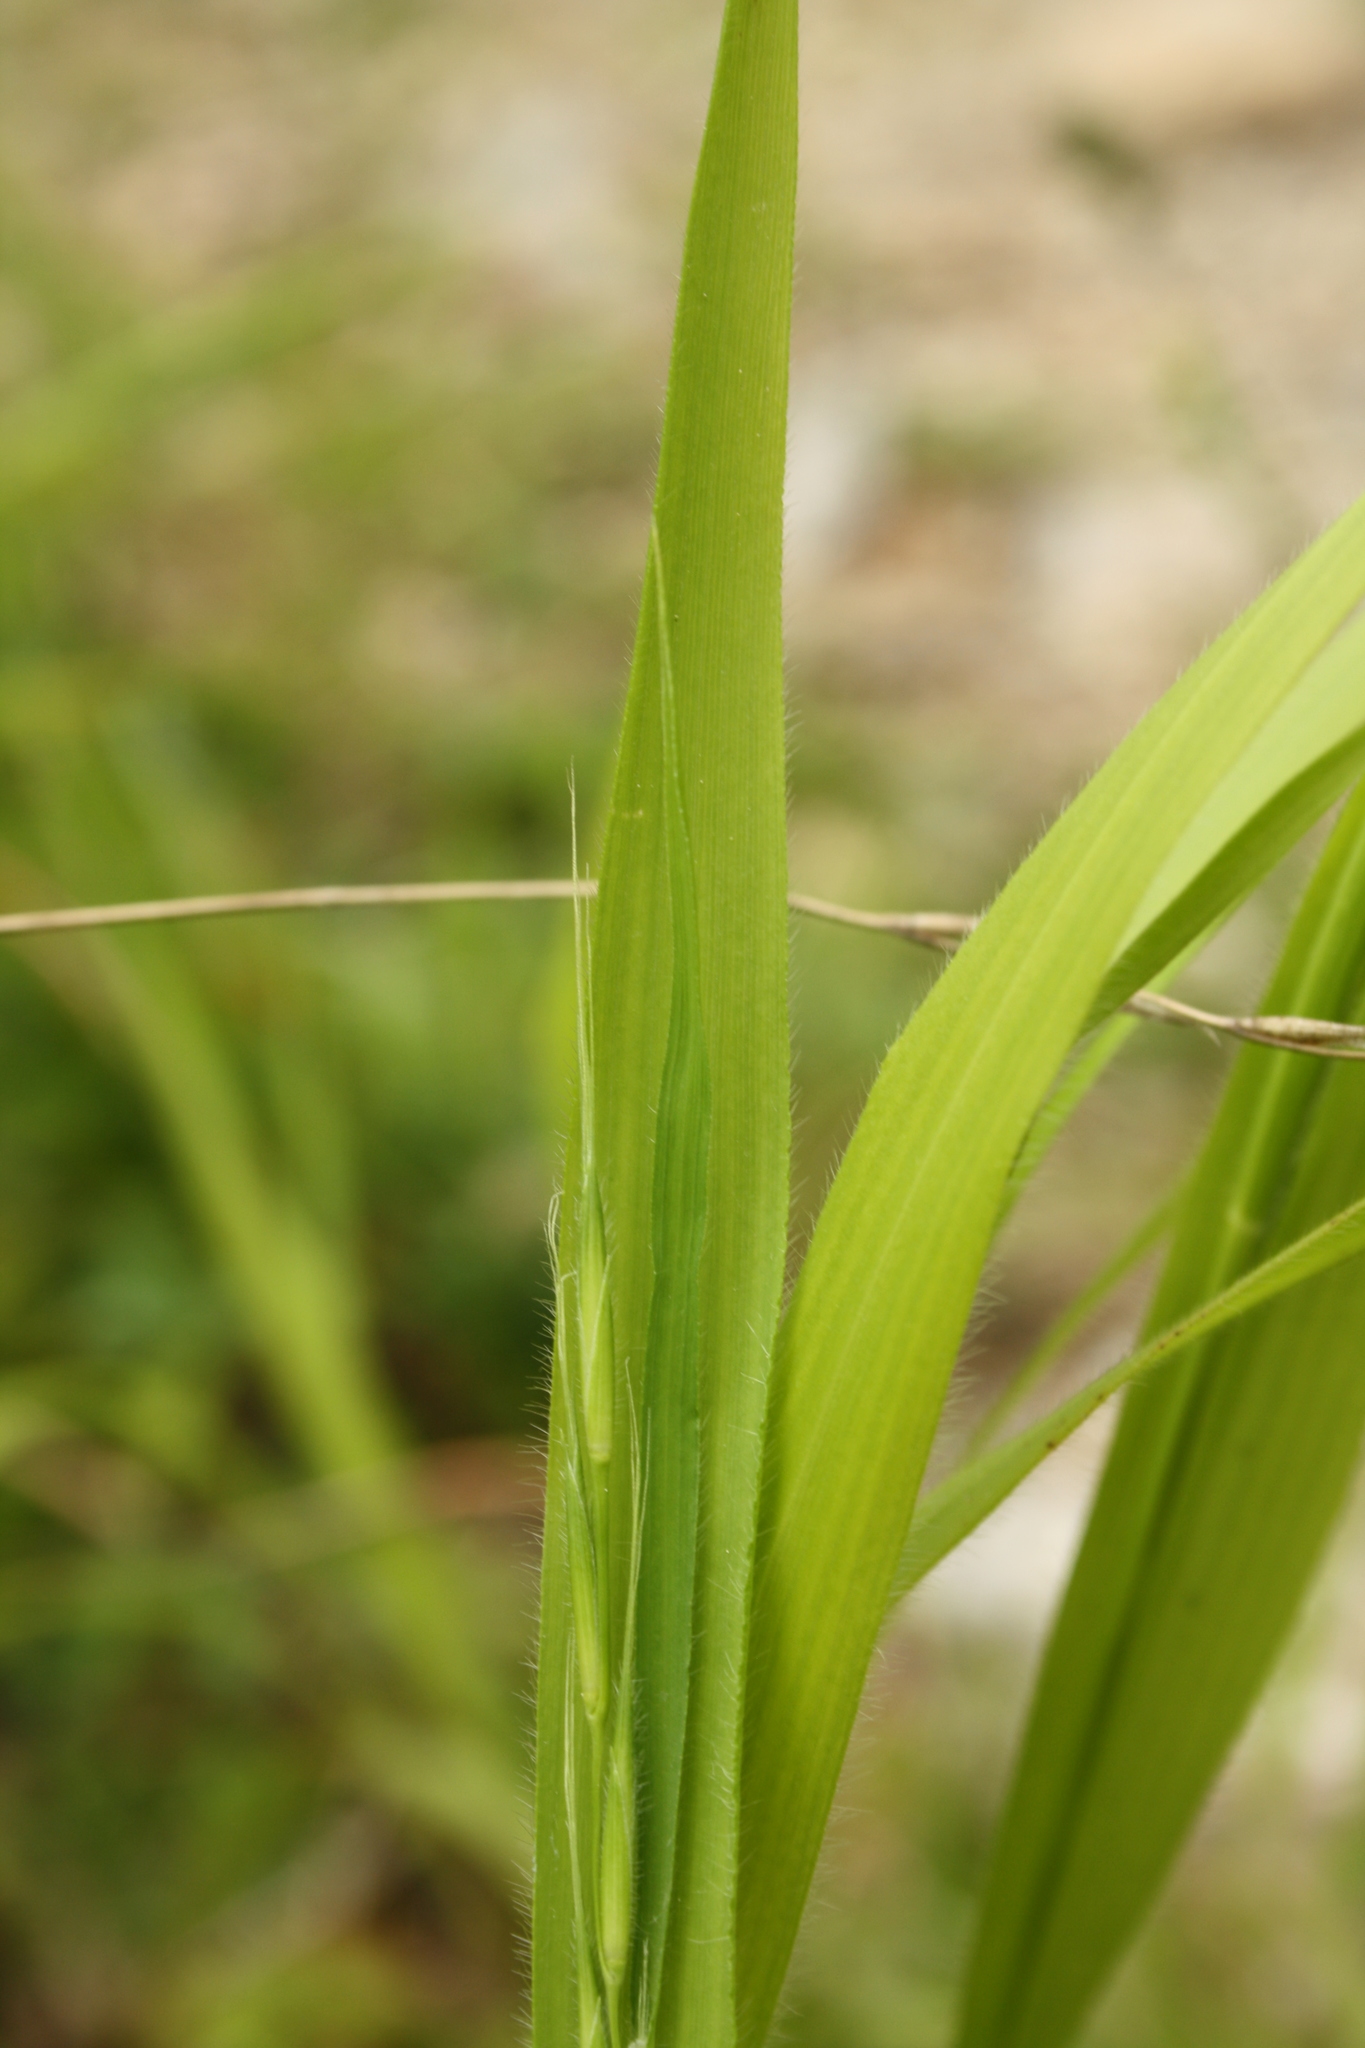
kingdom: Plantae
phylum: Tracheophyta
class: Liliopsida
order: Poales
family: Poaceae
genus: Brachypodium
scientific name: Brachypodium sylvaticum
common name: False-brome
